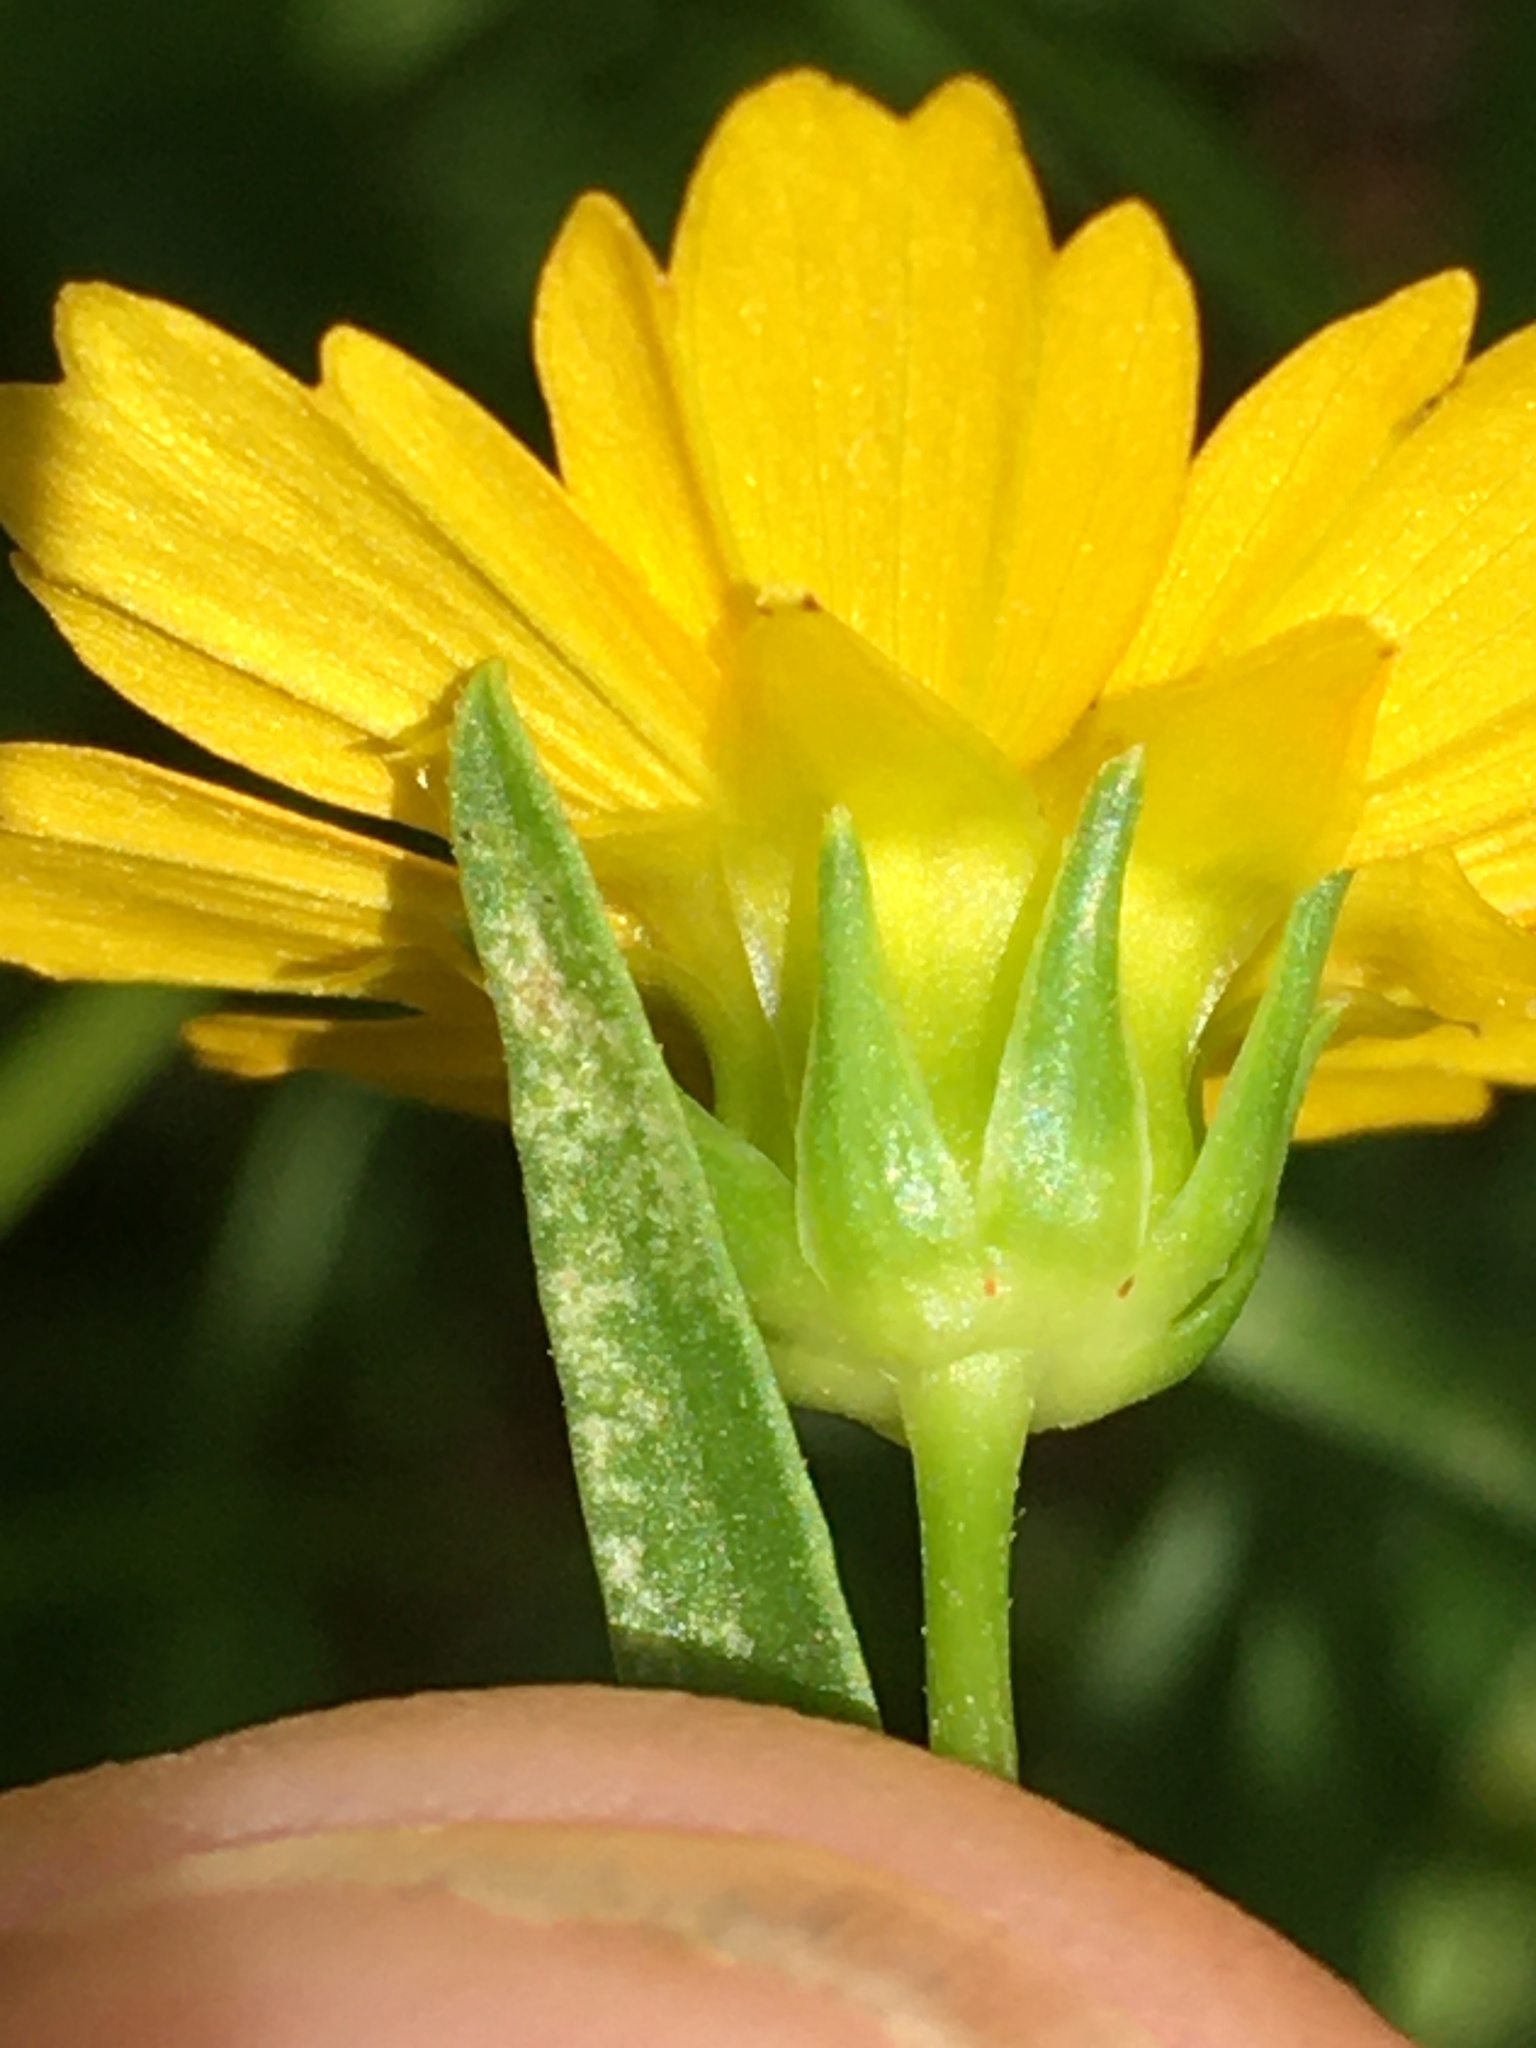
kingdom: Plantae
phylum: Tracheophyta
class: Magnoliopsida
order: Asterales
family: Asteraceae
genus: Coreopsis
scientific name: Coreopsis lanceolata
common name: Garden coreopsis
